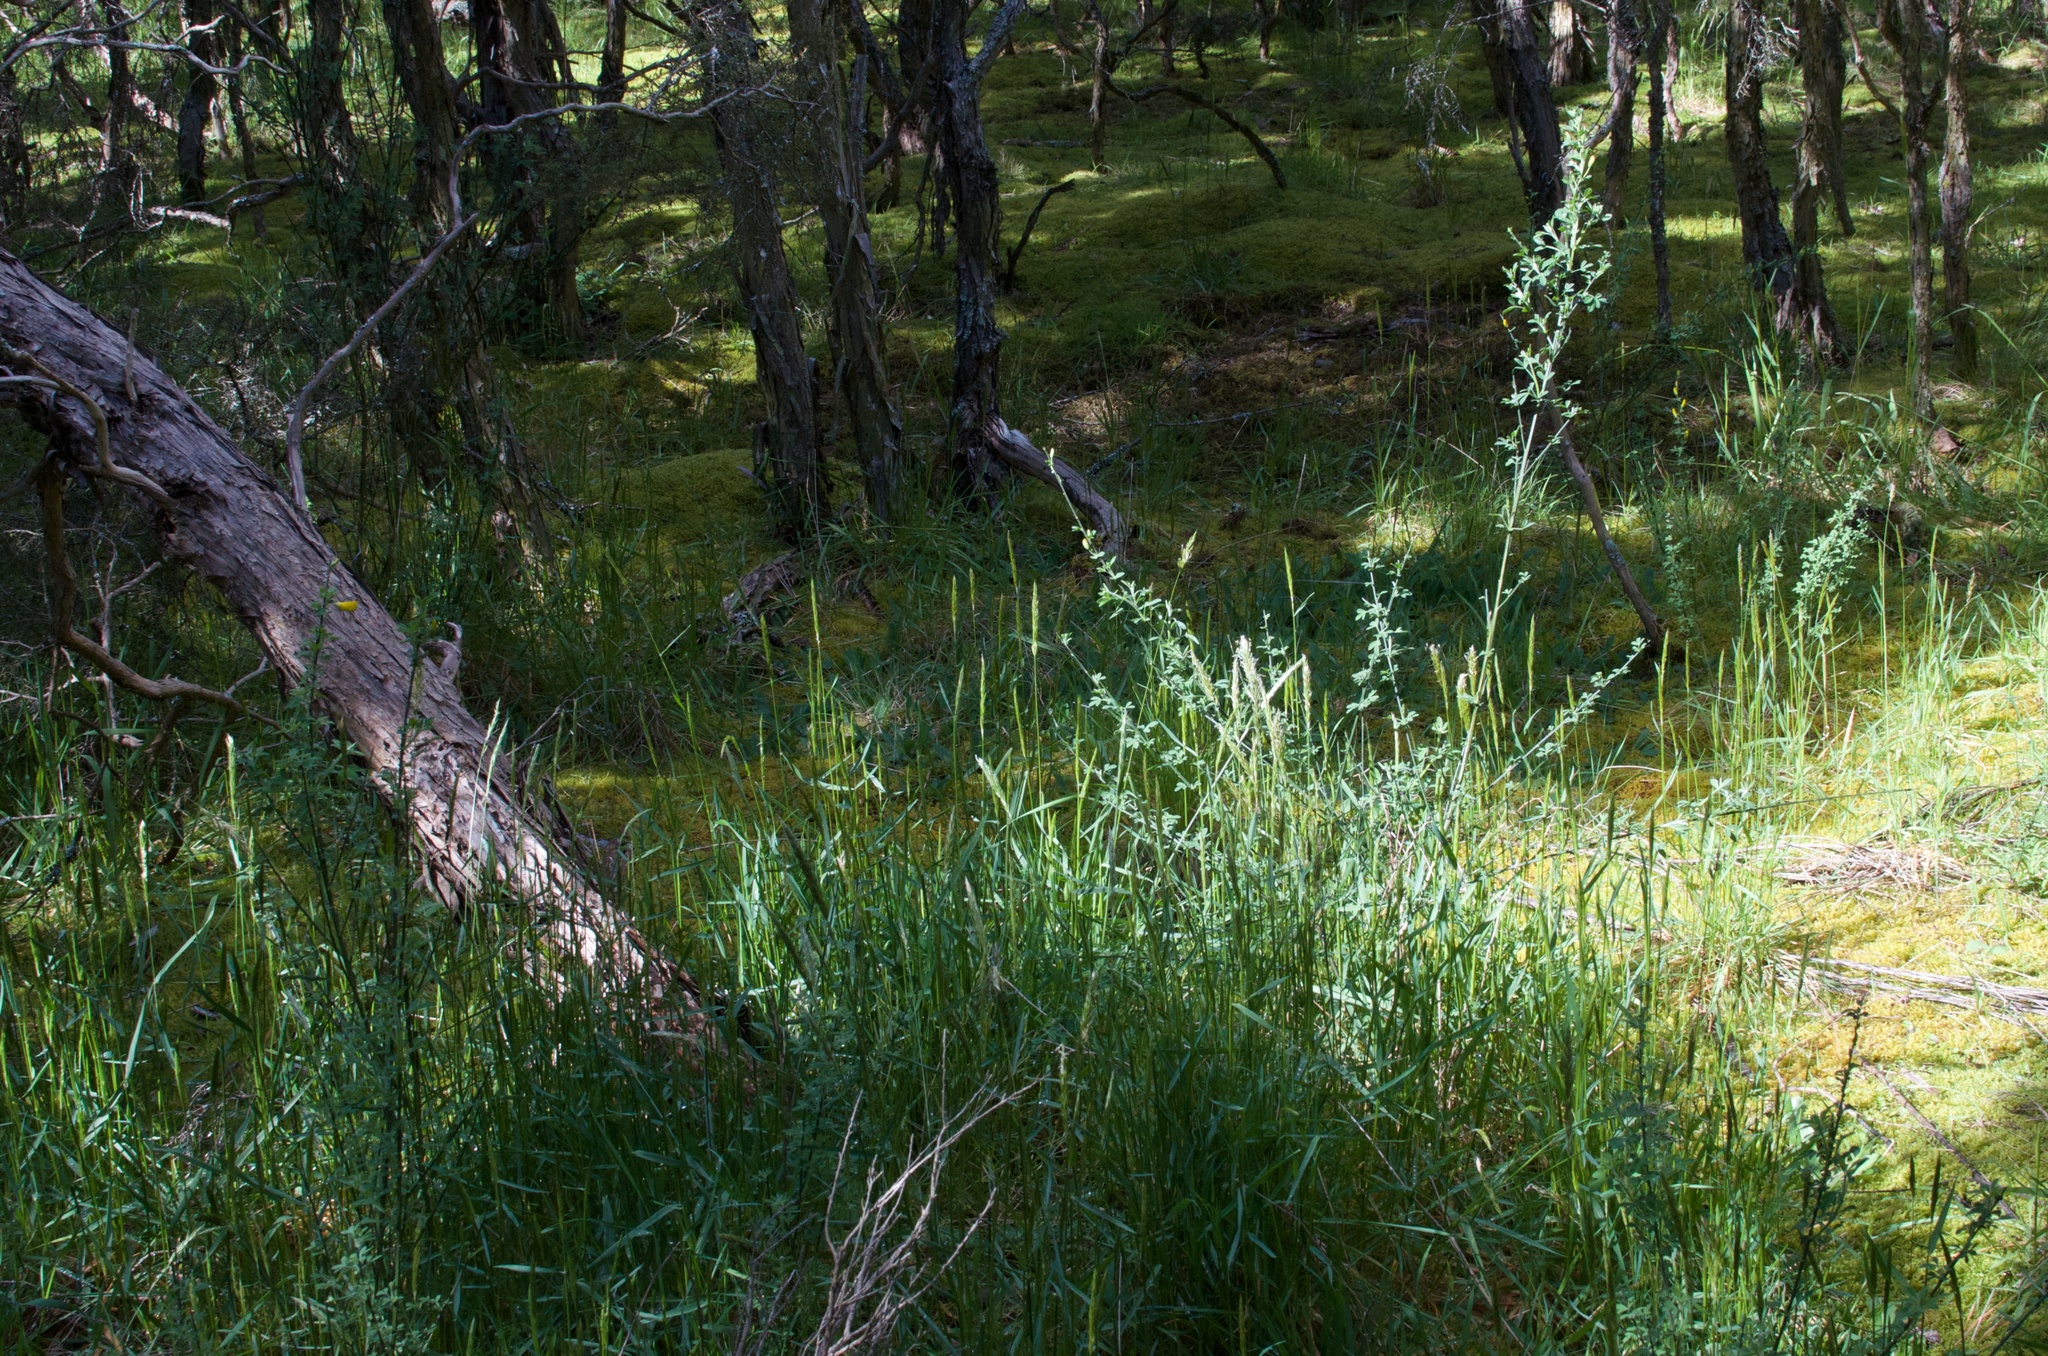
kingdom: Plantae
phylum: Tracheophyta
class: Magnoliopsida
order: Fabales
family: Fabaceae
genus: Genista
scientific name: Genista monspessulana
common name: Montpellier broom
